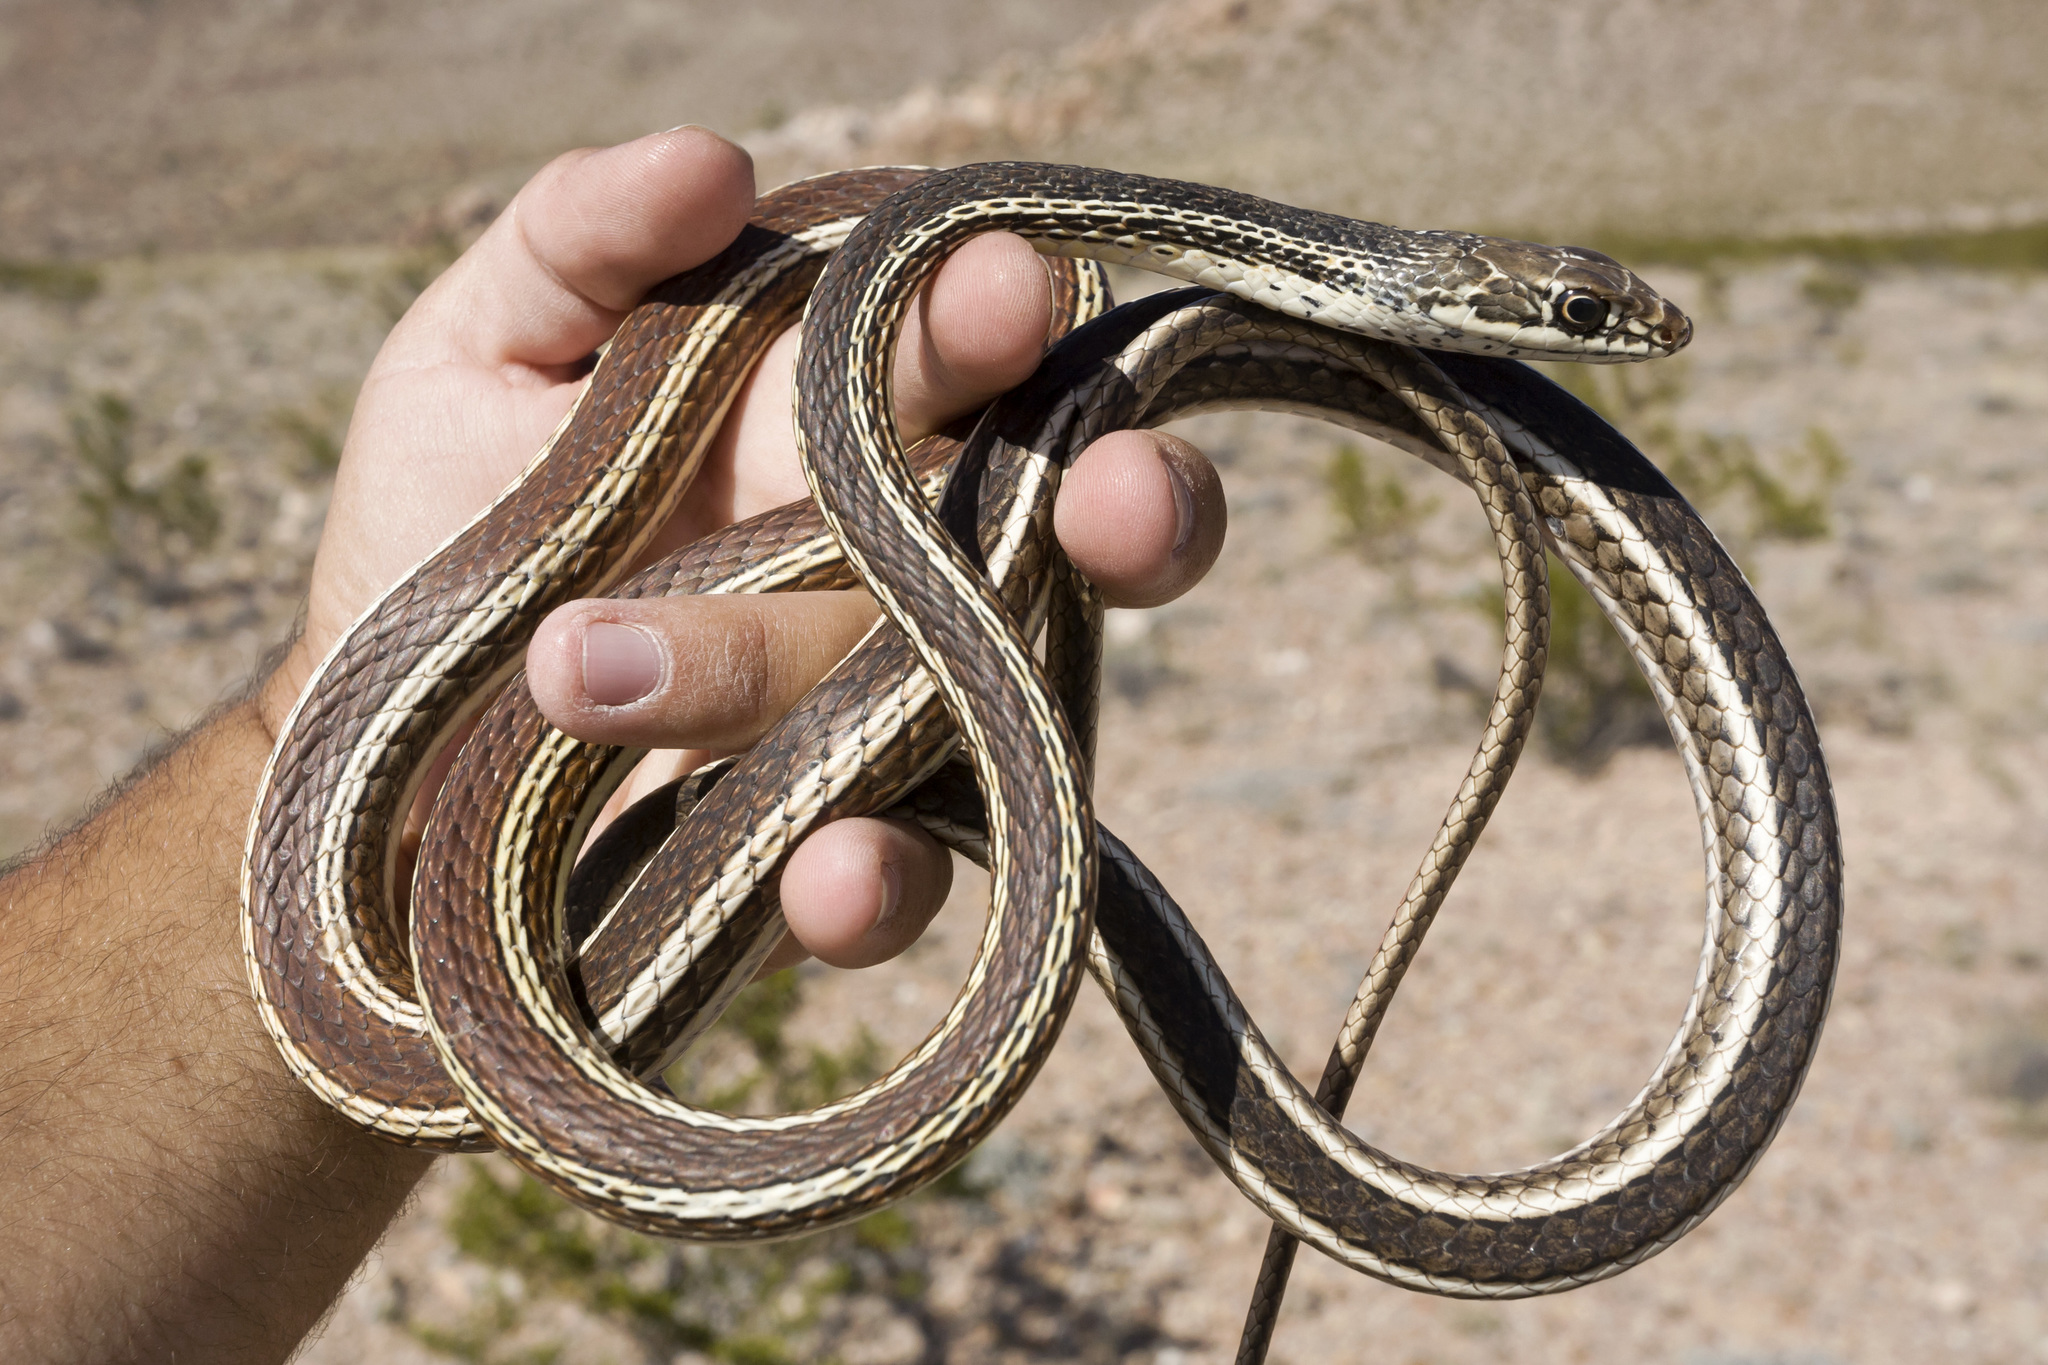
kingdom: Animalia
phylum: Chordata
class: Squamata
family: Colubridae
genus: Masticophis
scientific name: Masticophis taeniatus
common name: Striped whipsnake
